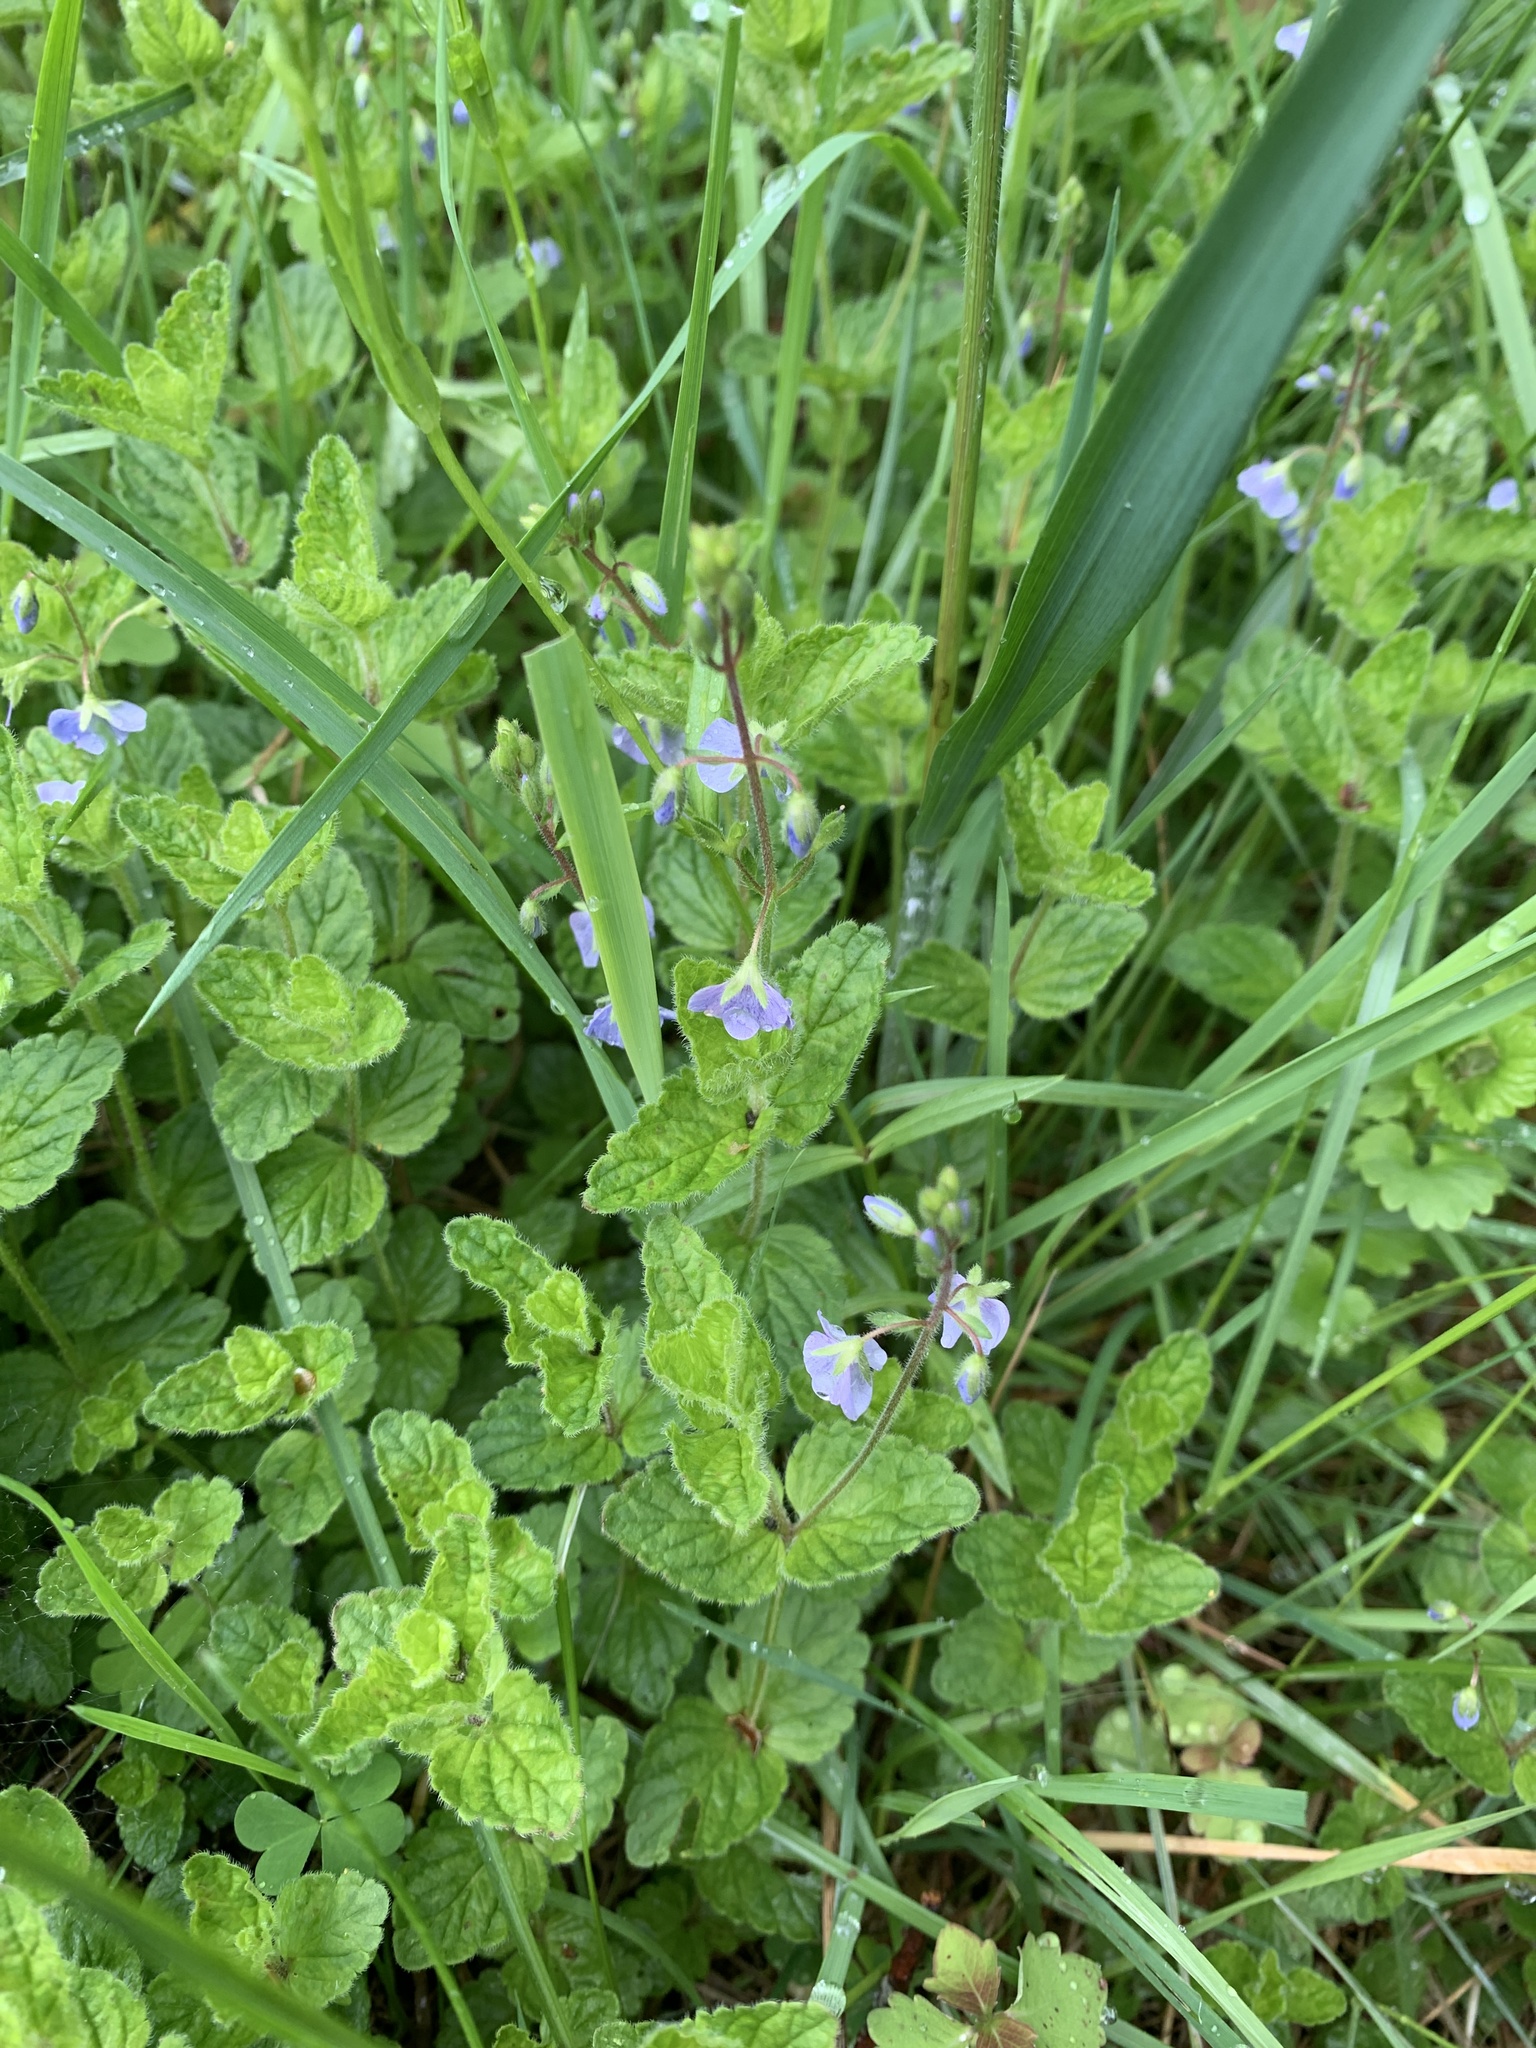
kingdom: Plantae
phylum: Tracheophyta
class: Magnoliopsida
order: Lamiales
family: Plantaginaceae
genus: Veronica
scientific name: Veronica chamaedrys
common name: Germander speedwell
